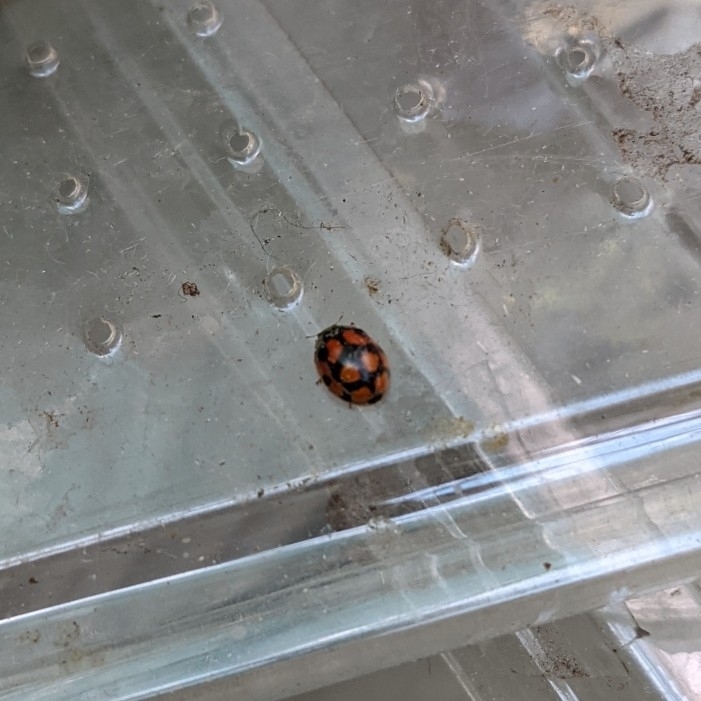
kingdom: Animalia
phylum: Arthropoda
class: Insecta
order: Coleoptera
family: Coccinellidae
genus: Adalia
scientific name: Adalia decempunctata
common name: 10-spot ladybird
